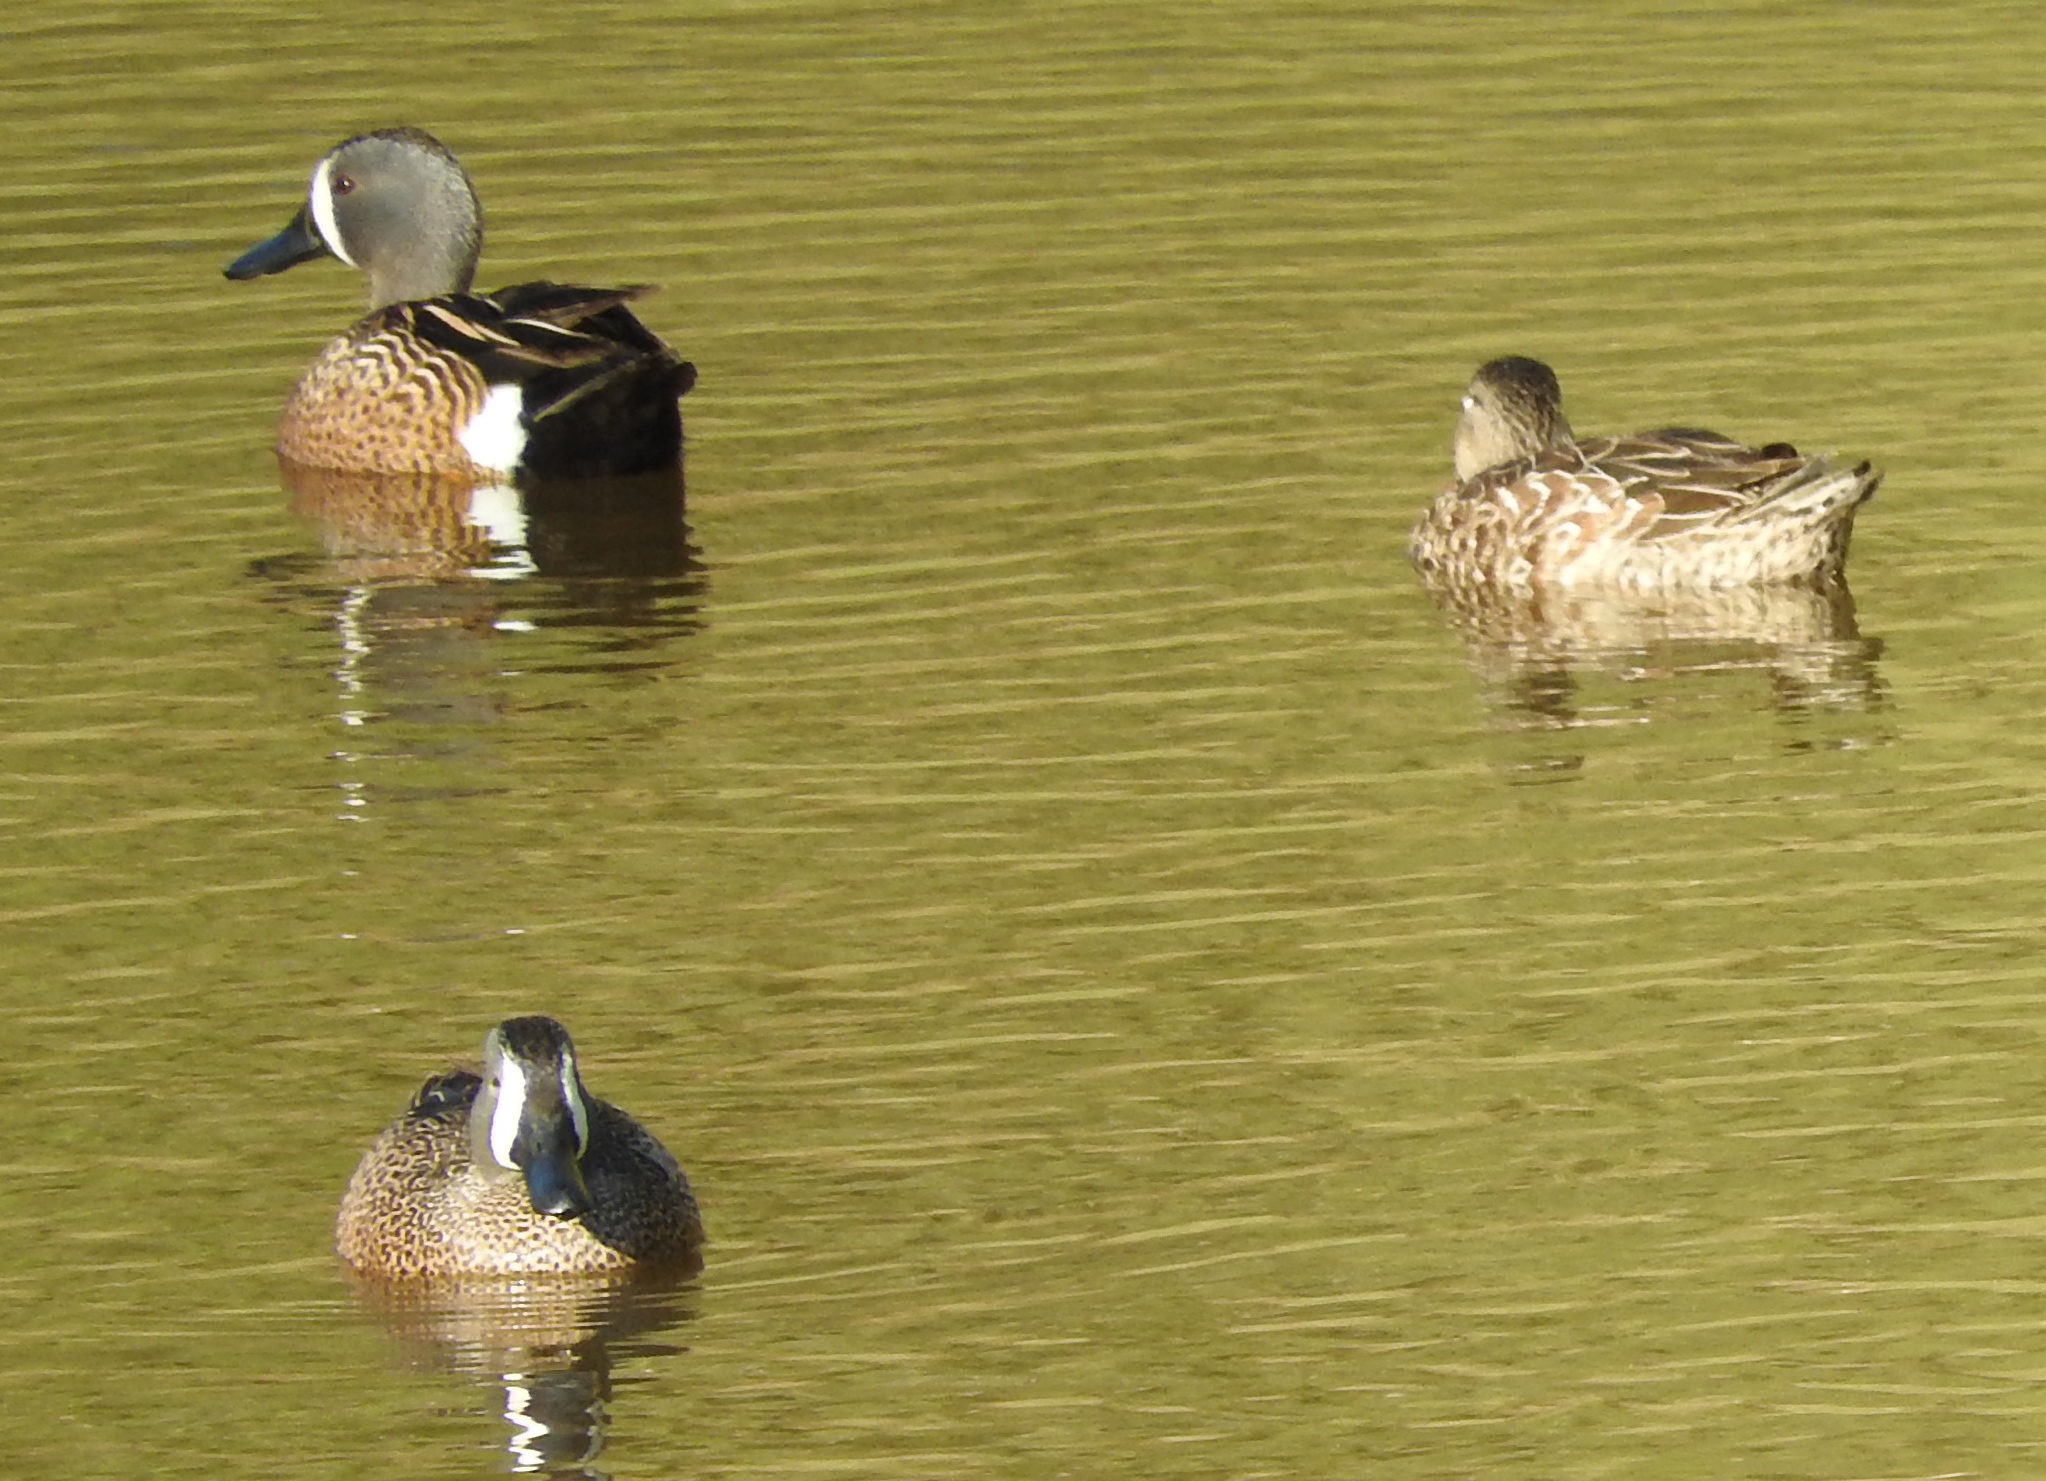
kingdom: Animalia
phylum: Chordata
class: Aves
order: Anseriformes
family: Anatidae
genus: Spatula
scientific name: Spatula discors
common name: Blue-winged teal
